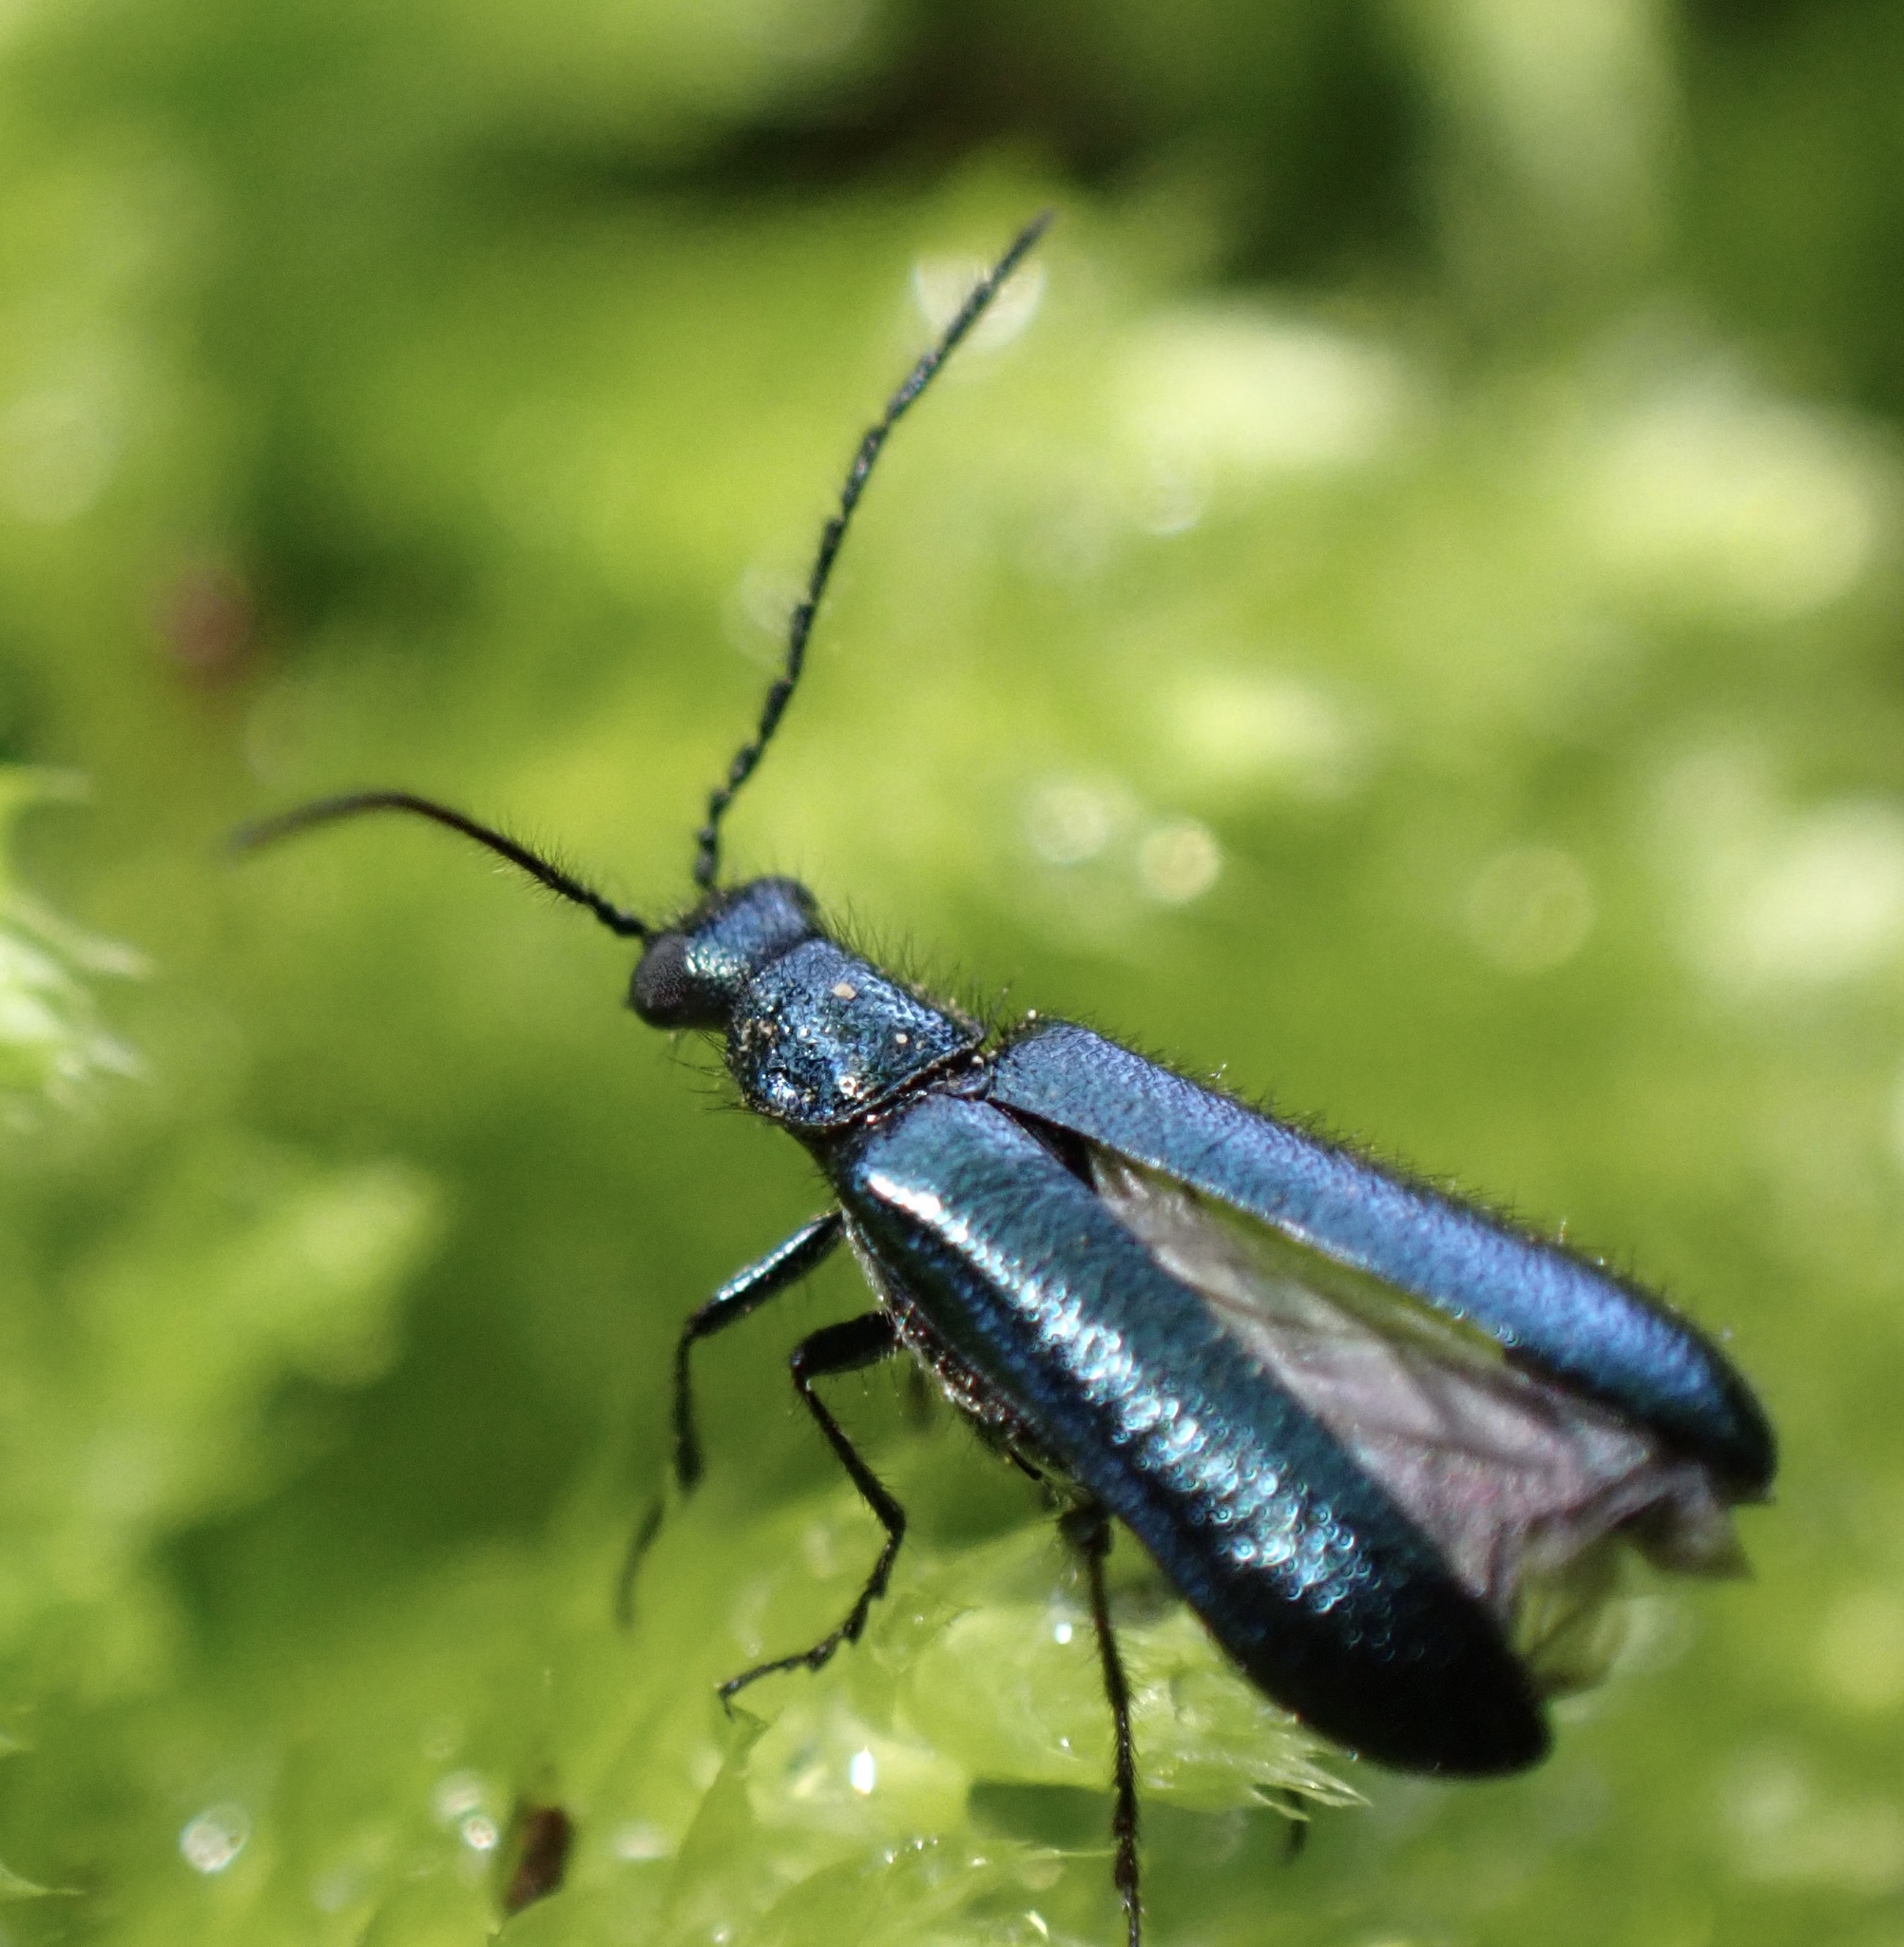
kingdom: Animalia
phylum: Arthropoda
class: Insecta
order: Coleoptera
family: Melyridae
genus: Dasytes
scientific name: Dasytes caeruleus
